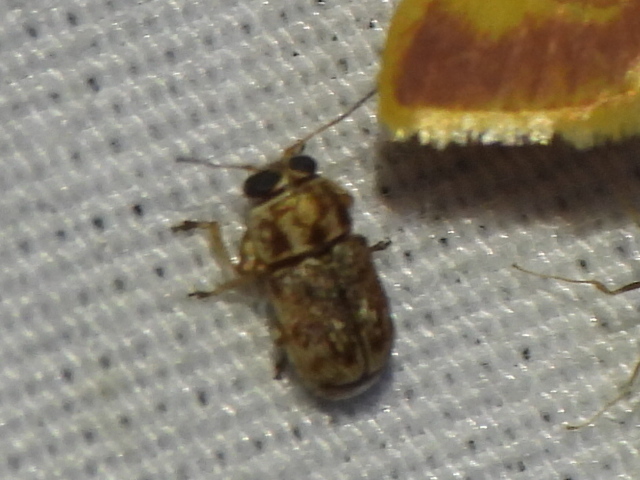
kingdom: Animalia
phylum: Arthropoda
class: Insecta
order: Coleoptera
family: Chrysomelidae
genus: Pachybrachis
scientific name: Pachybrachis texanus
